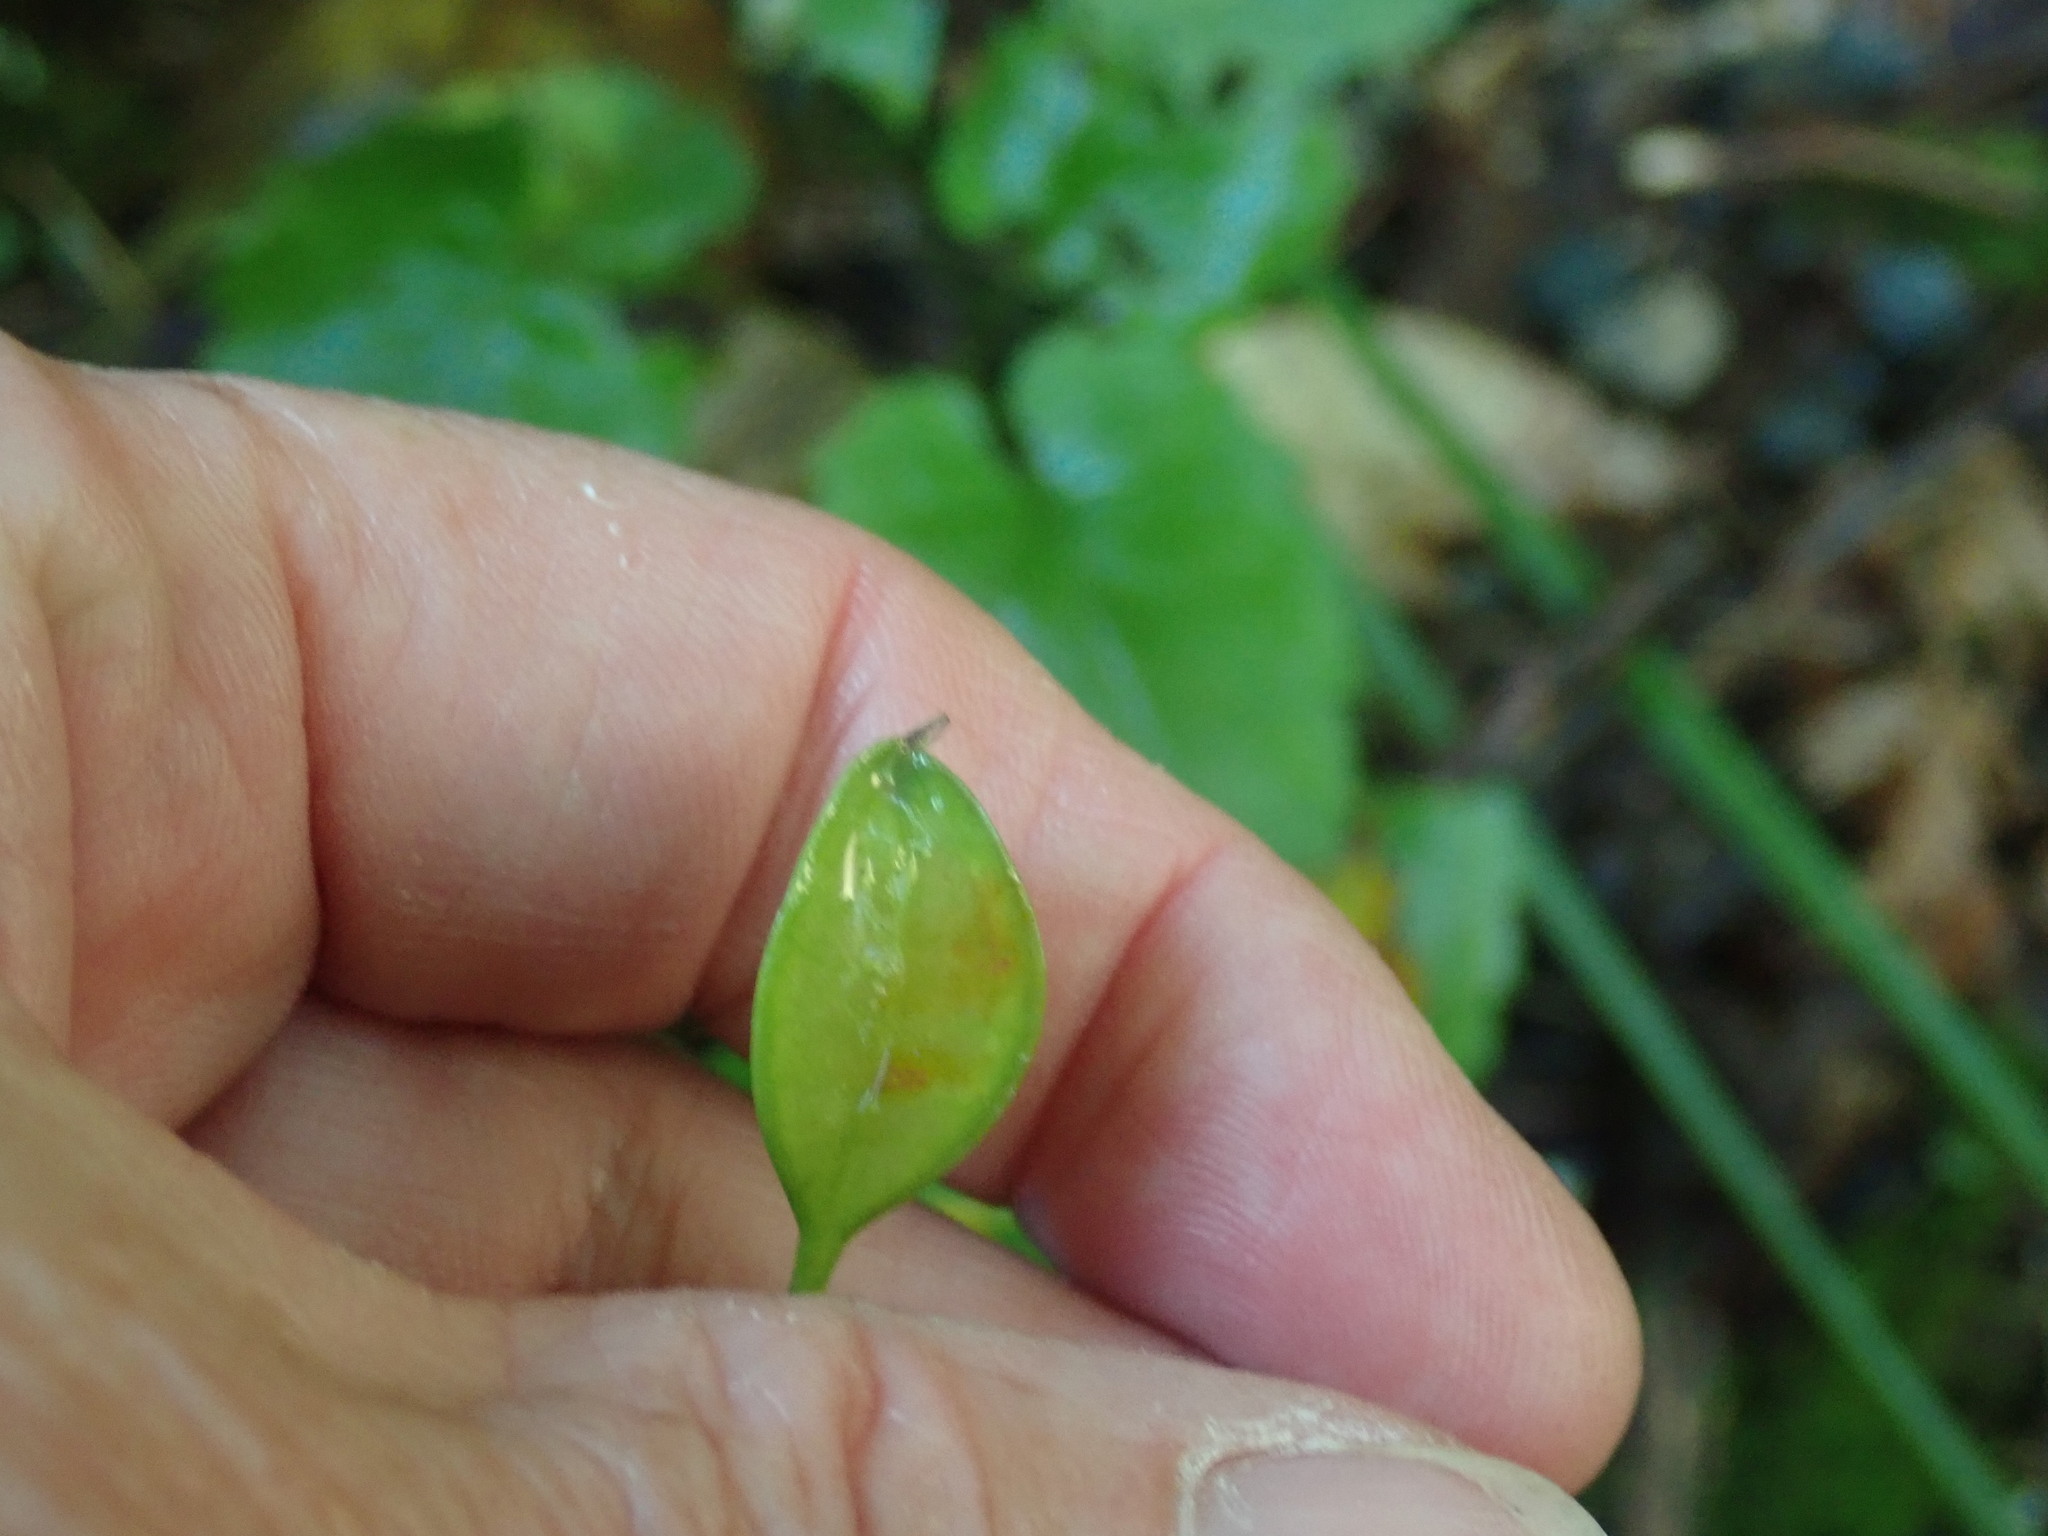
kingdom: Plantae
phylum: Tracheophyta
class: Liliopsida
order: Liliales
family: Colchicaceae
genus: Uvularia
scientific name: Uvularia sessilifolia
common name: Straw-lily
